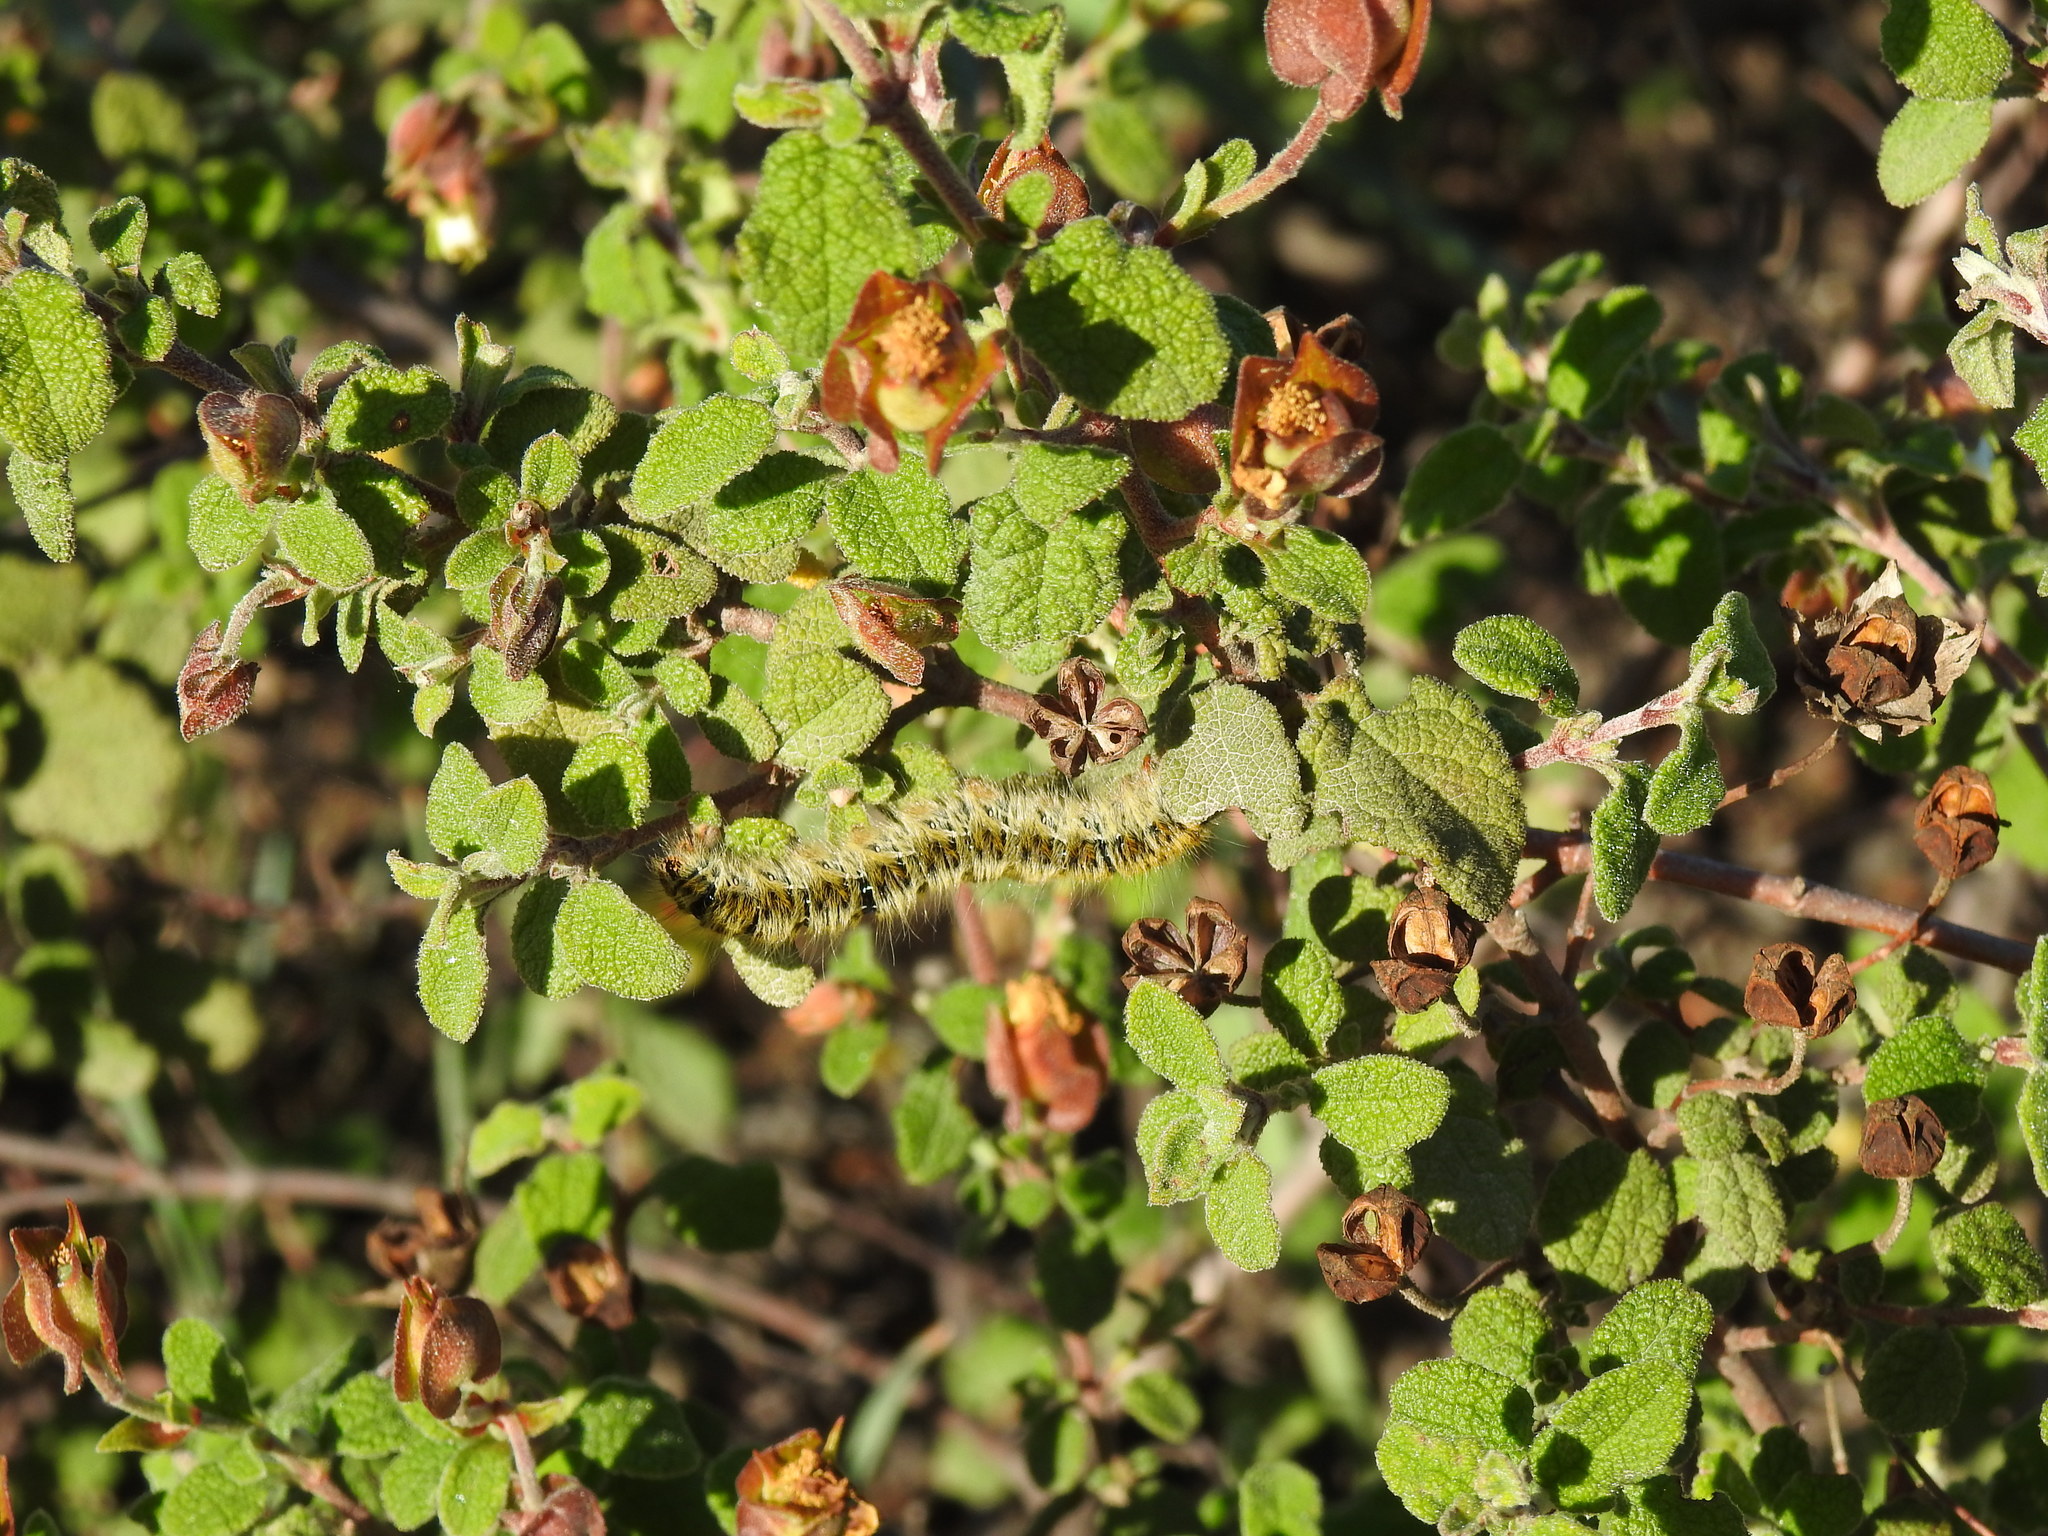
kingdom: Plantae
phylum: Tracheophyta
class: Magnoliopsida
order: Malvales
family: Cistaceae
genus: Cistus
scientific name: Cistus salviifolius
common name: Salvia cistus
